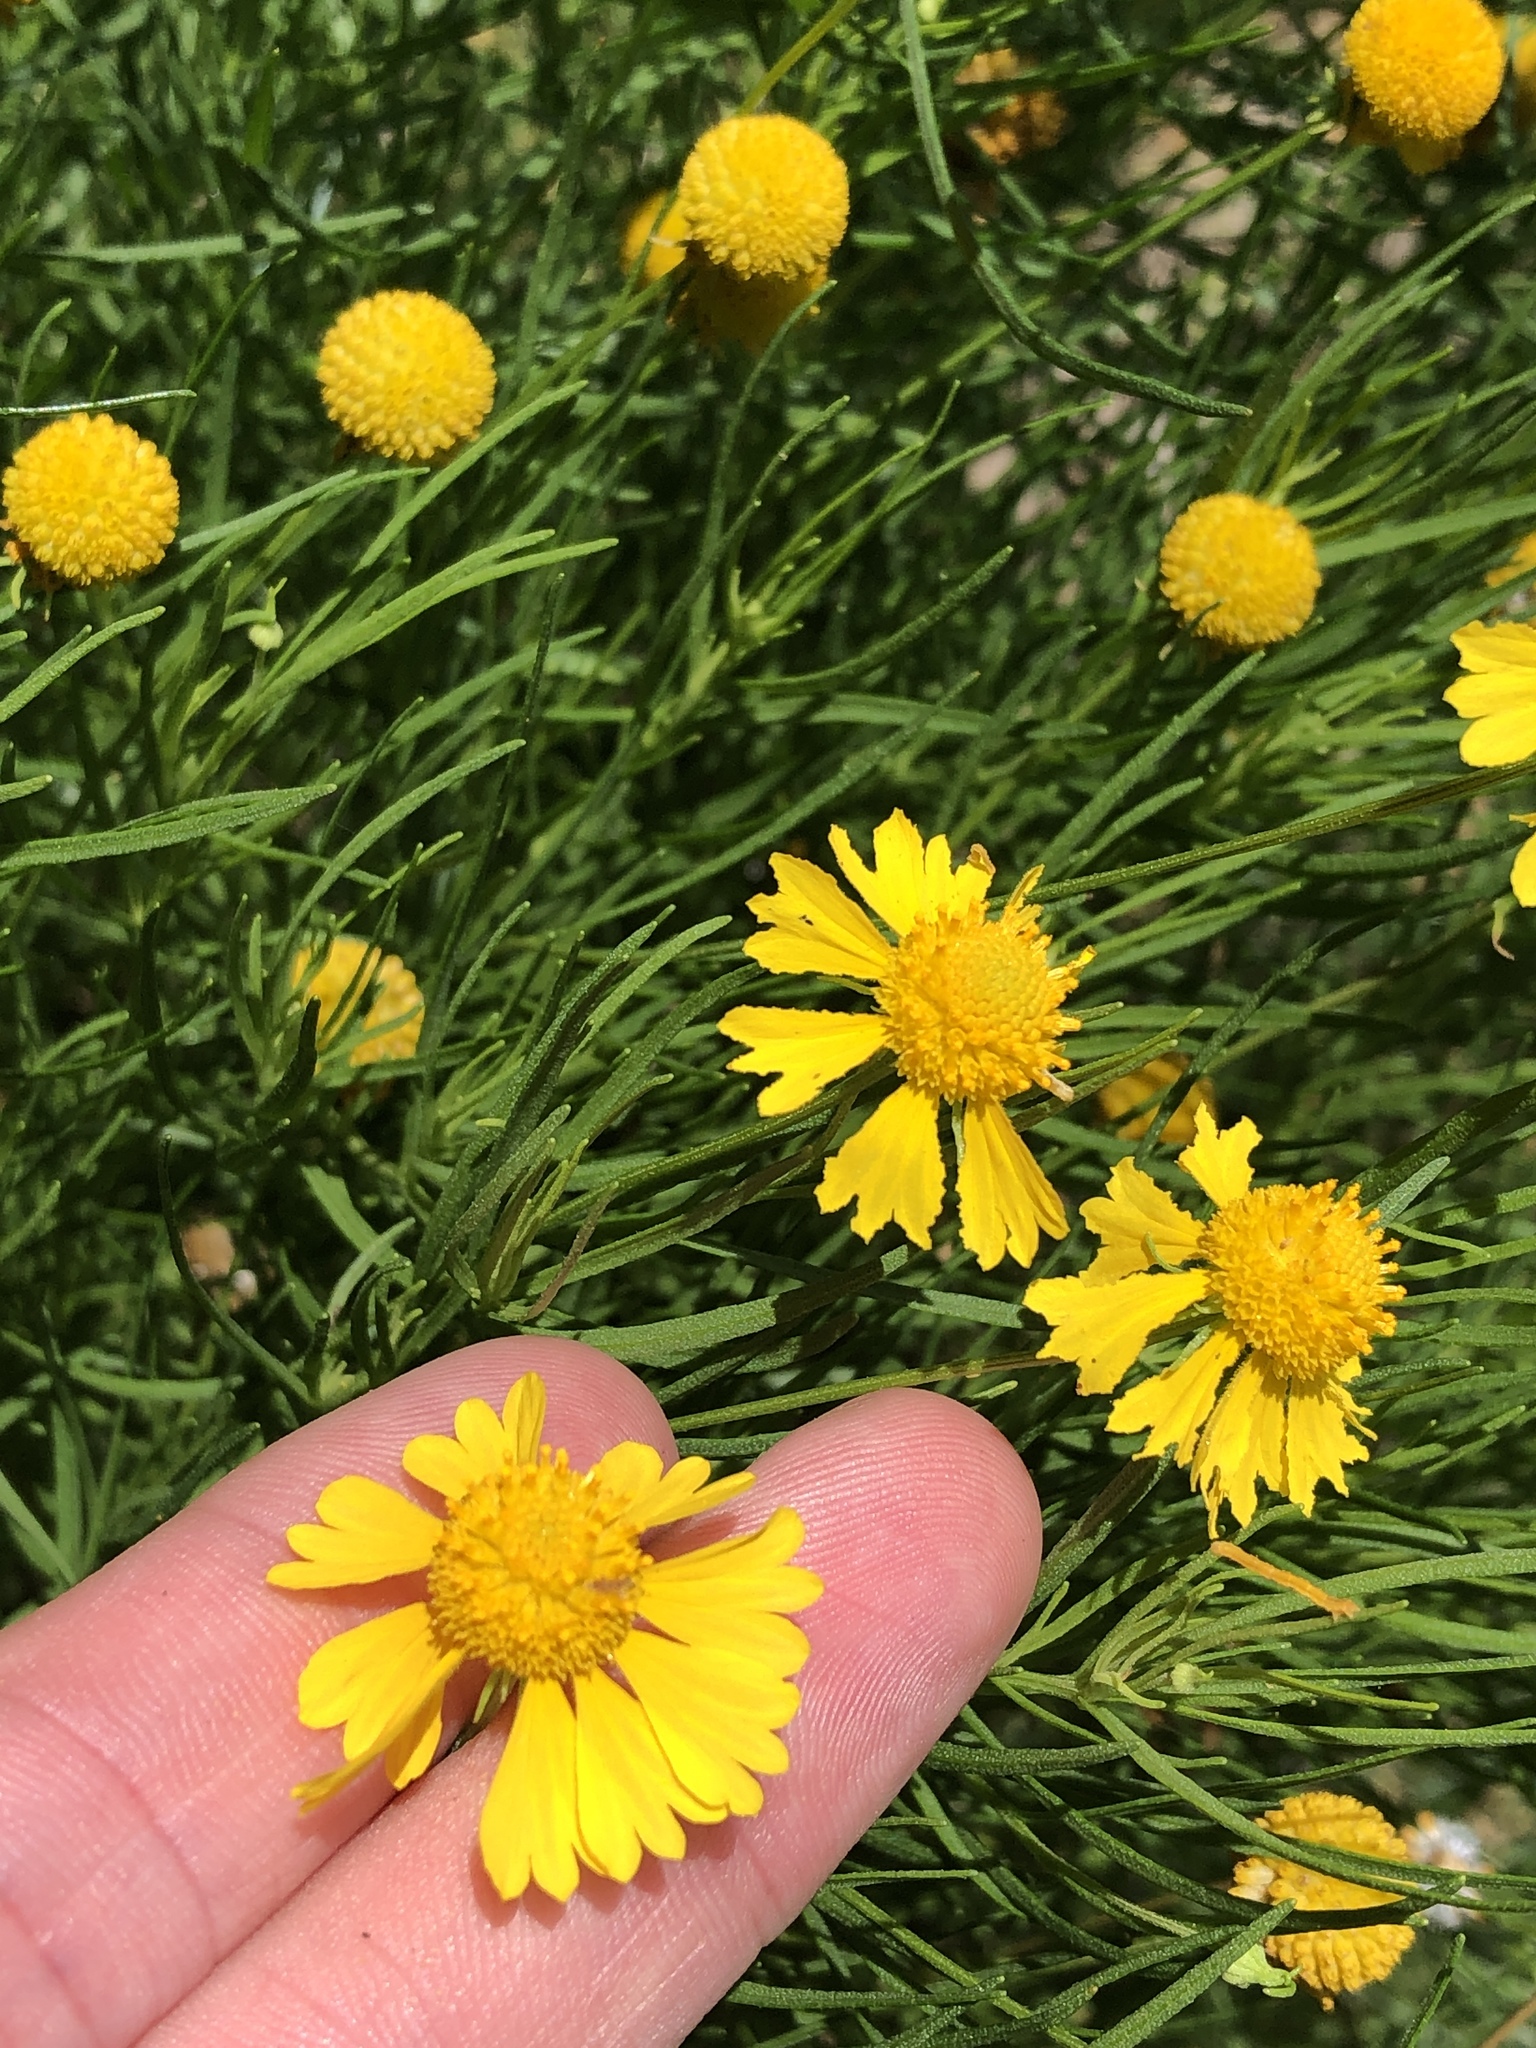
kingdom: Plantae
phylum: Tracheophyta
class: Magnoliopsida
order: Asterales
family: Asteraceae
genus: Helenium
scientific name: Helenium amarum
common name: Bitter sneezeweed
